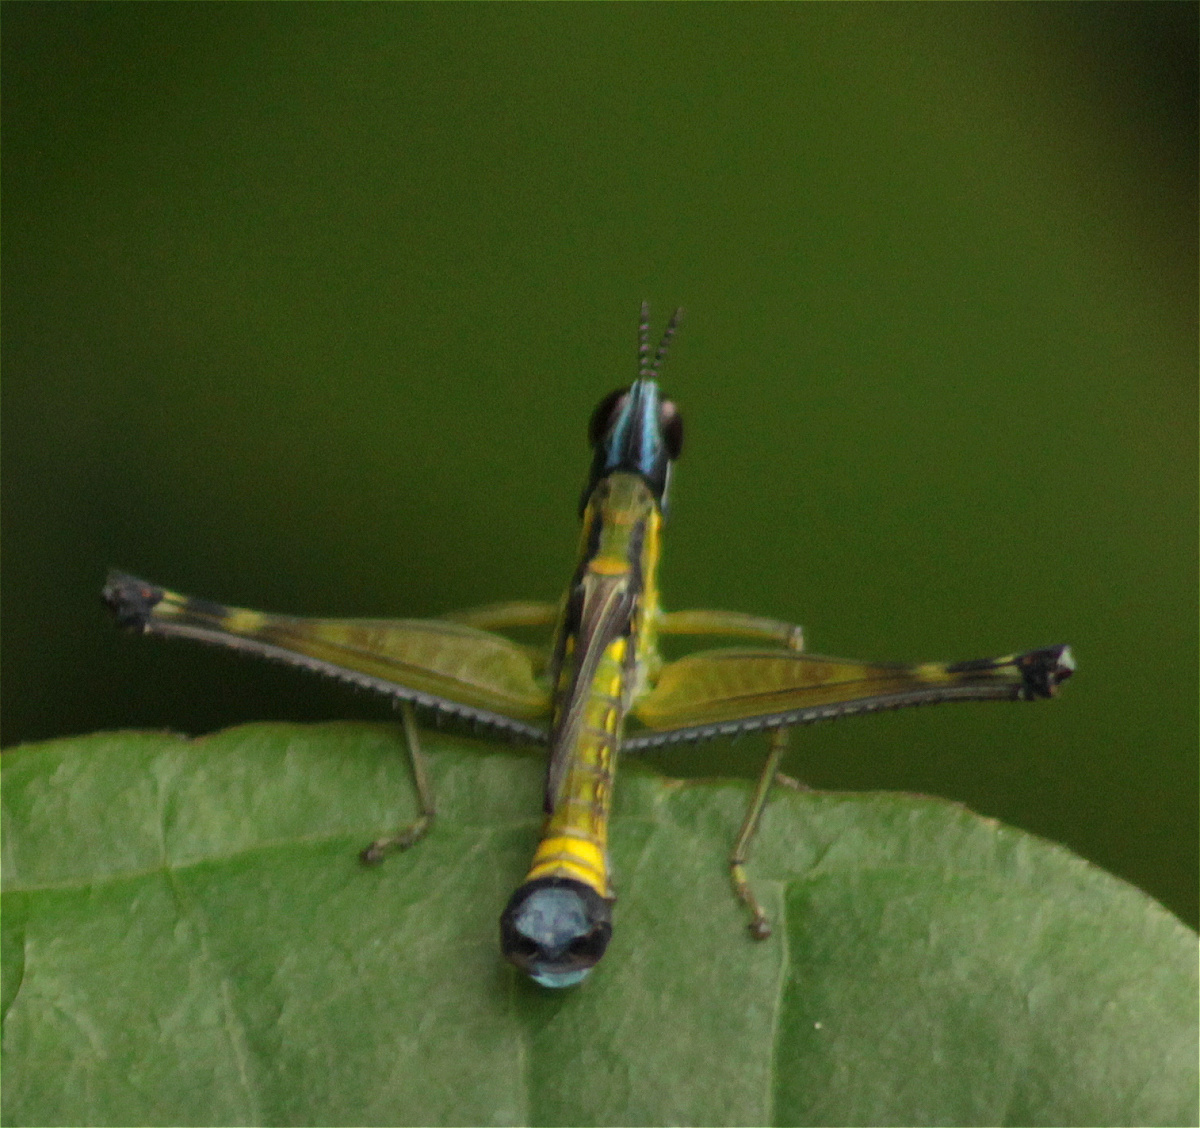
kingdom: Animalia
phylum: Arthropoda
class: Insecta
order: Orthoptera
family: Eumastacidae
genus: Malenamastax
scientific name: Malenamastax tobiensis
